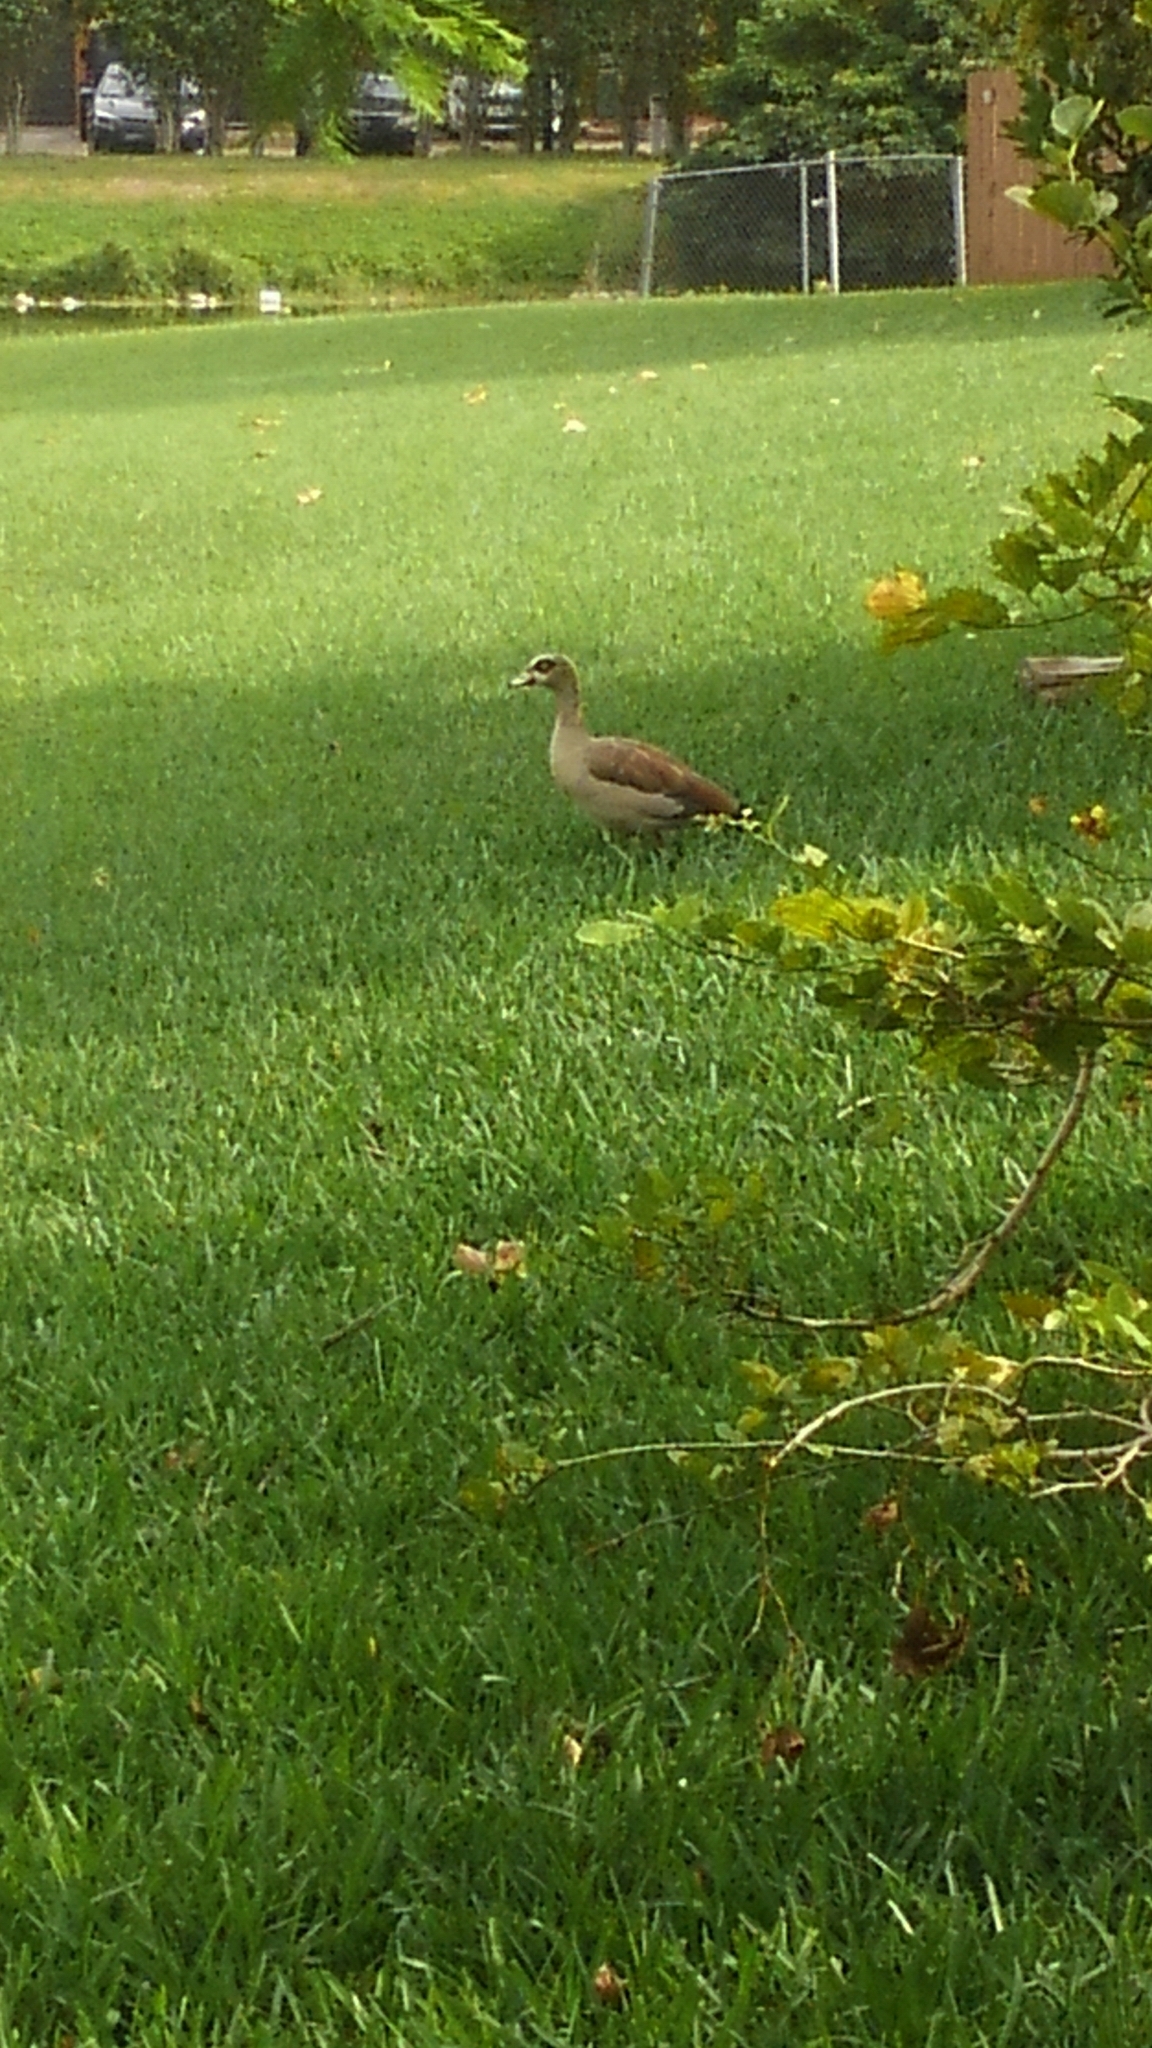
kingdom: Animalia
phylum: Chordata
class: Aves
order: Anseriformes
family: Anatidae
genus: Alopochen
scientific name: Alopochen aegyptiaca
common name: Egyptian goose
